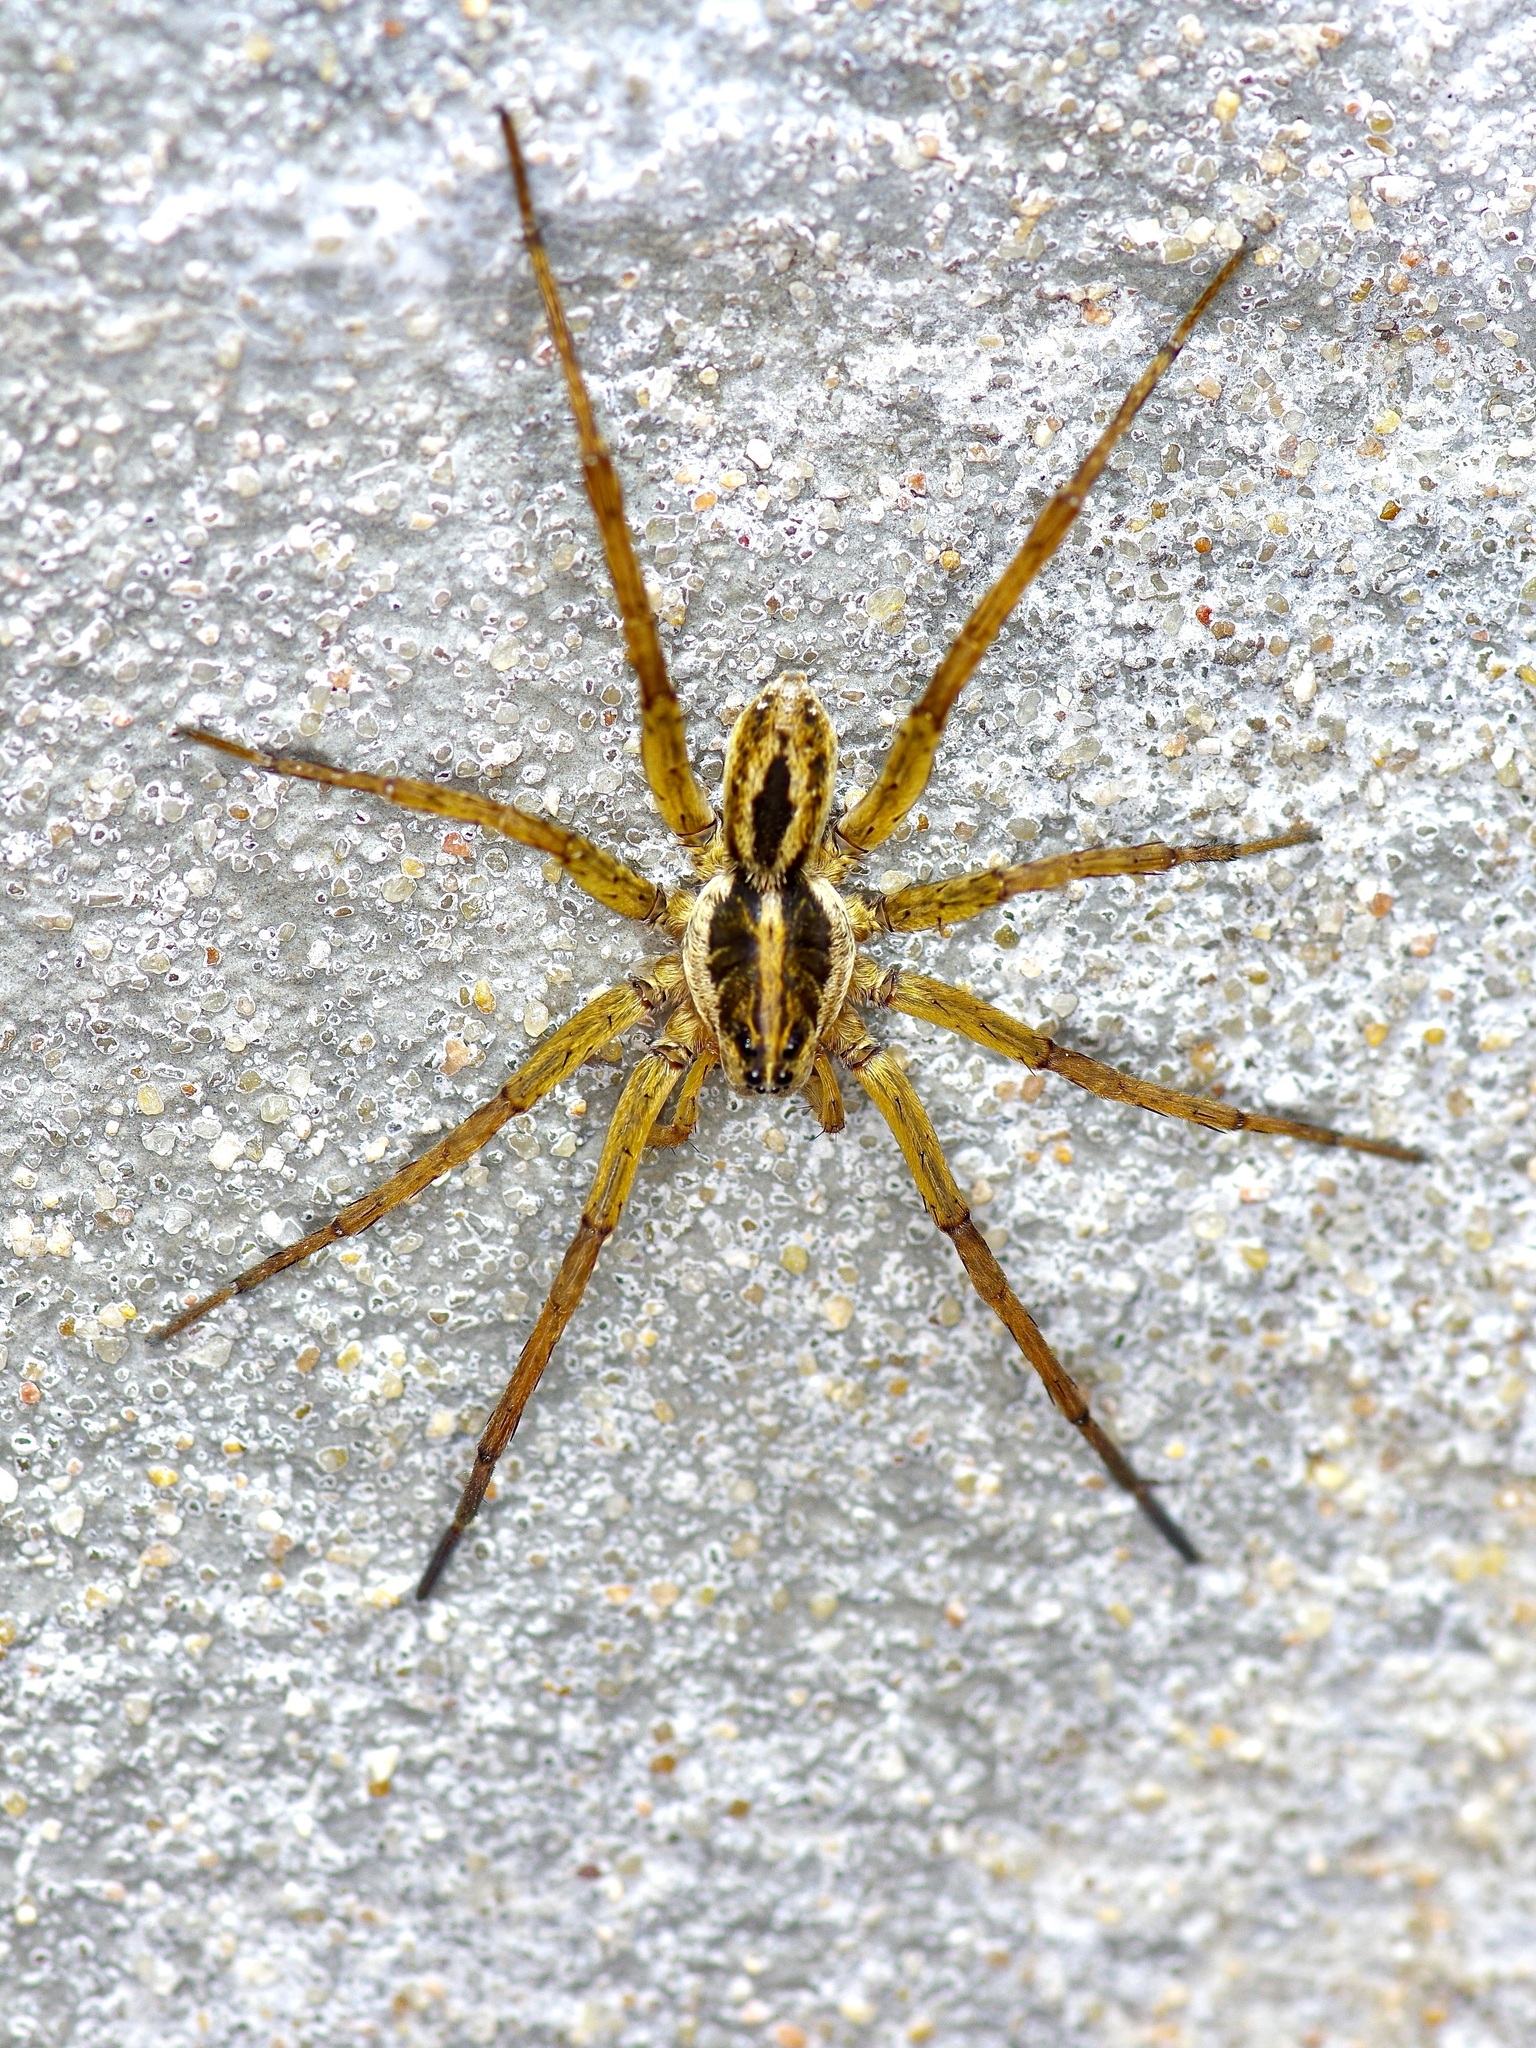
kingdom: Animalia
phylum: Arthropoda
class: Arachnida
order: Araneae
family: Lycosidae
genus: Tigrosa
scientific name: Tigrosa annexa
